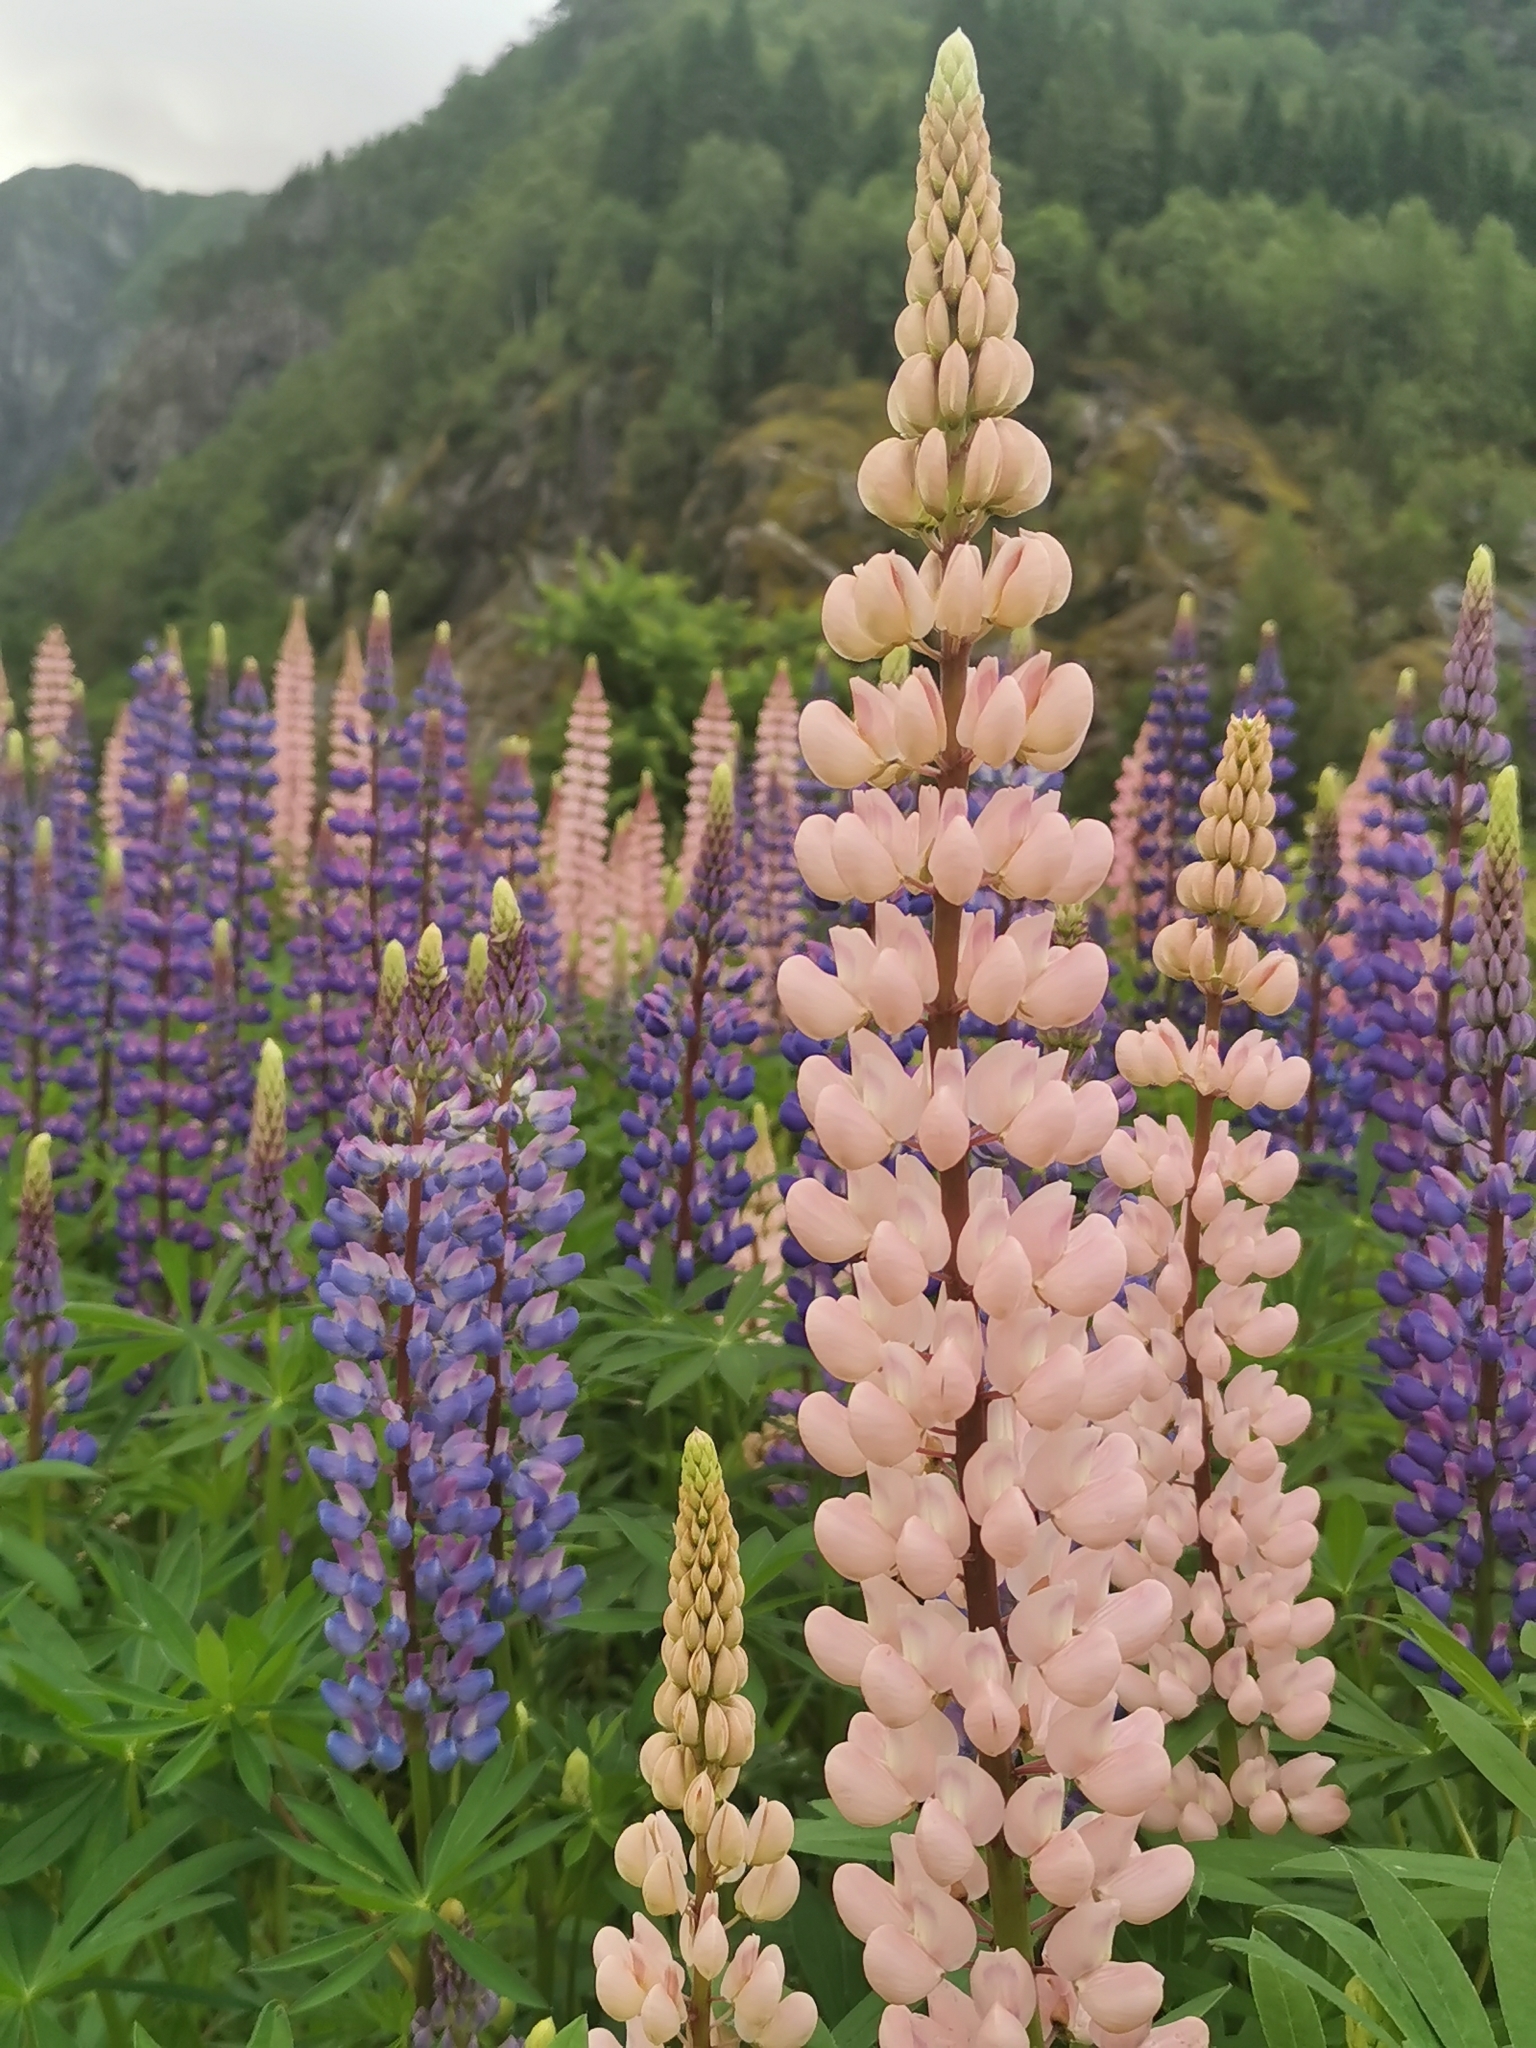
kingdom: Plantae
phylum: Tracheophyta
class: Magnoliopsida
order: Fabales
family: Fabaceae
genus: Lupinus
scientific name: Lupinus polyphyllus
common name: Garden lupin
